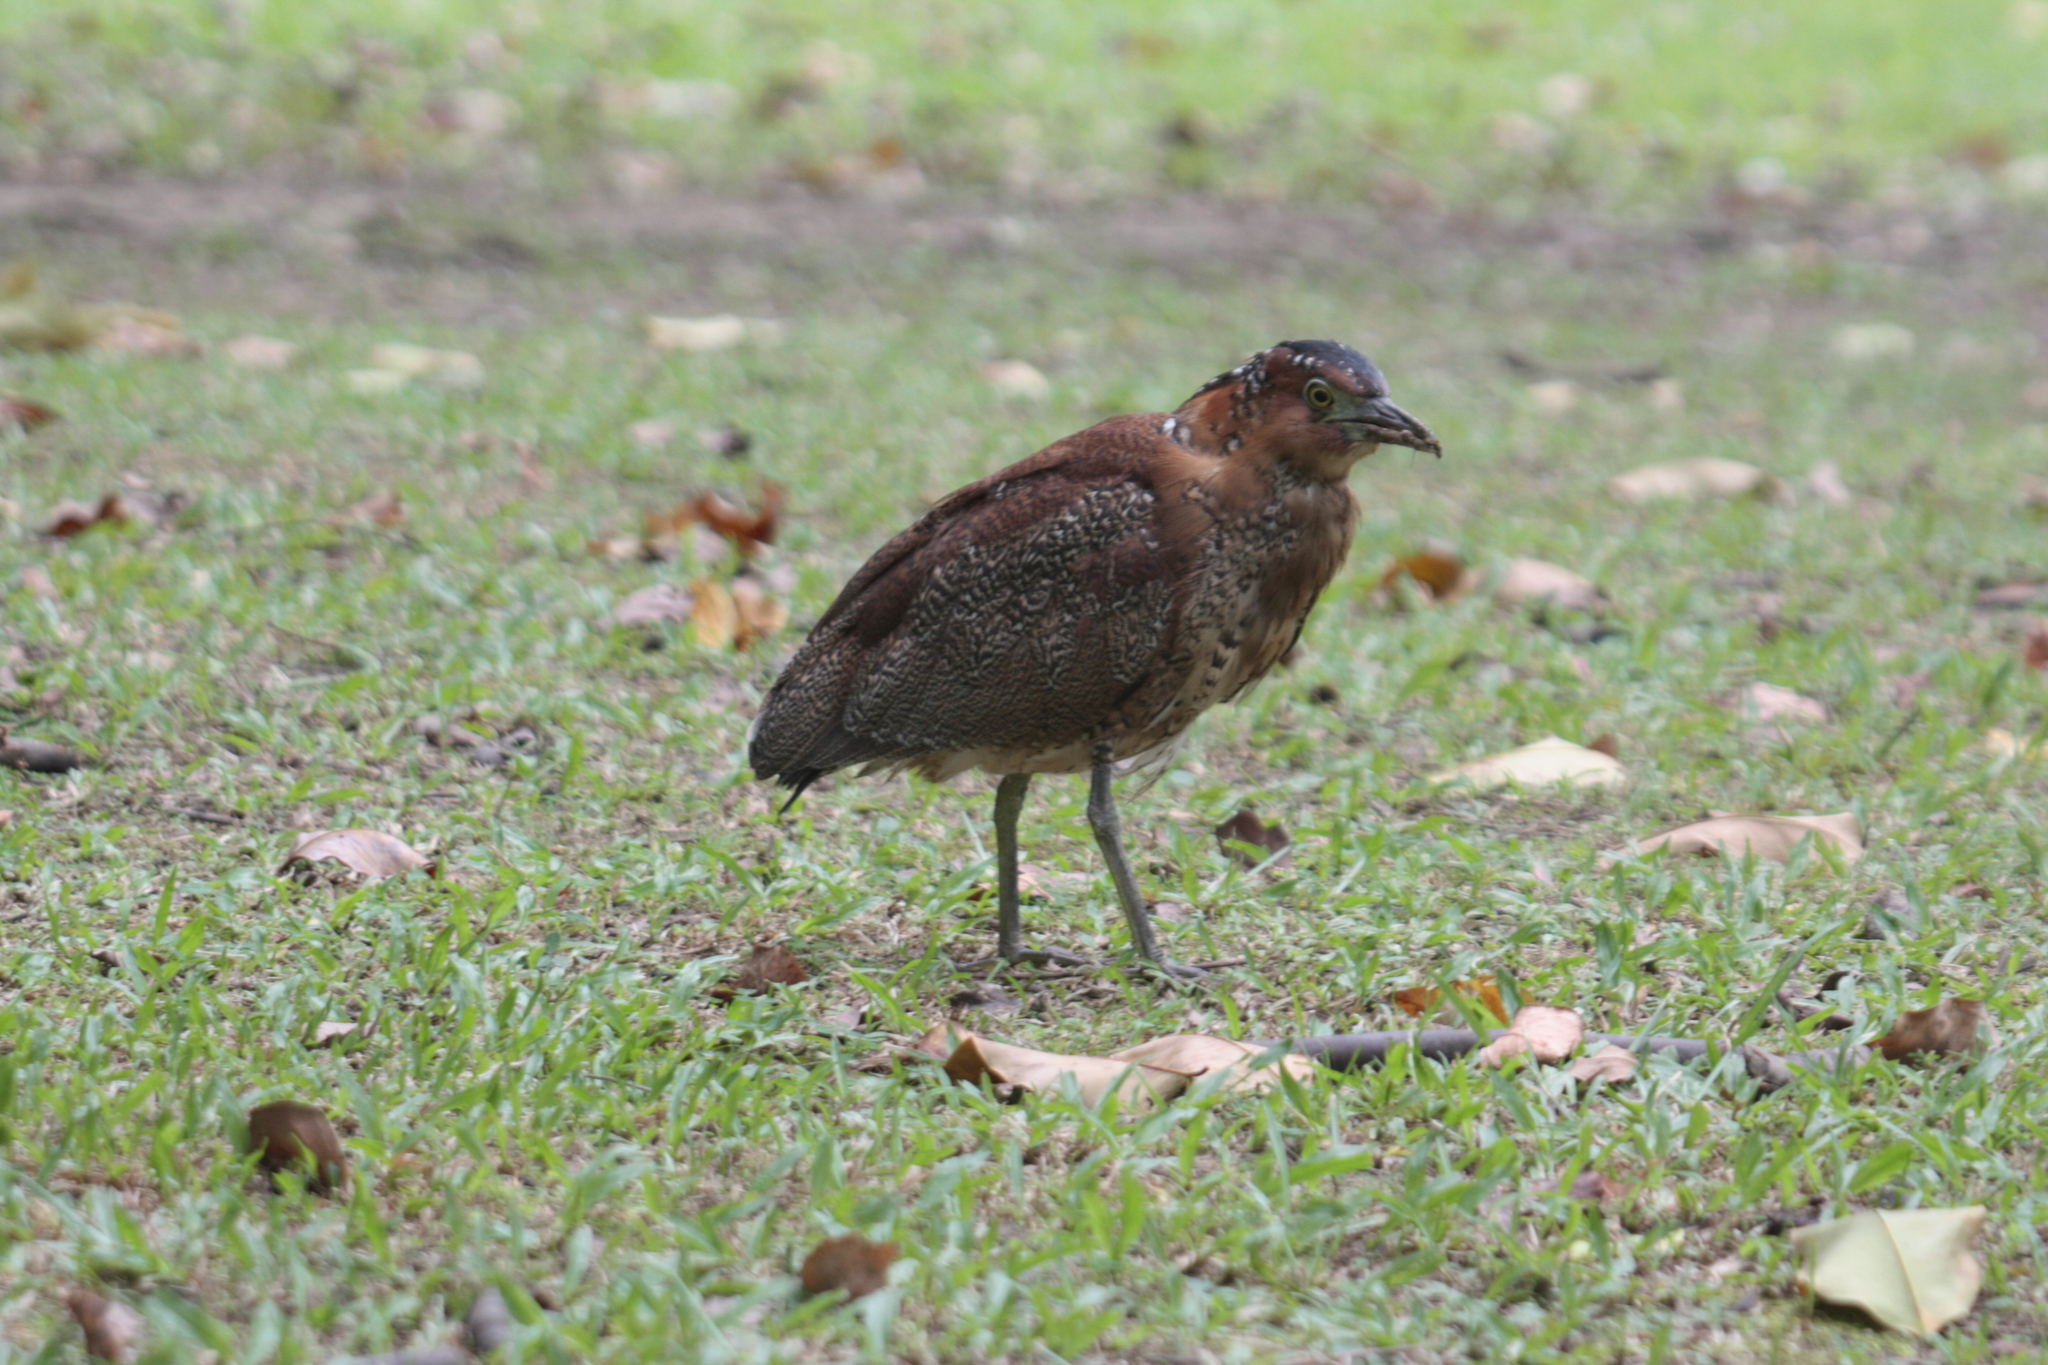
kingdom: Animalia
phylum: Chordata
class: Aves
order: Pelecaniformes
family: Ardeidae
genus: Gorsachius
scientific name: Gorsachius melanolophus
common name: Malayan night heron
